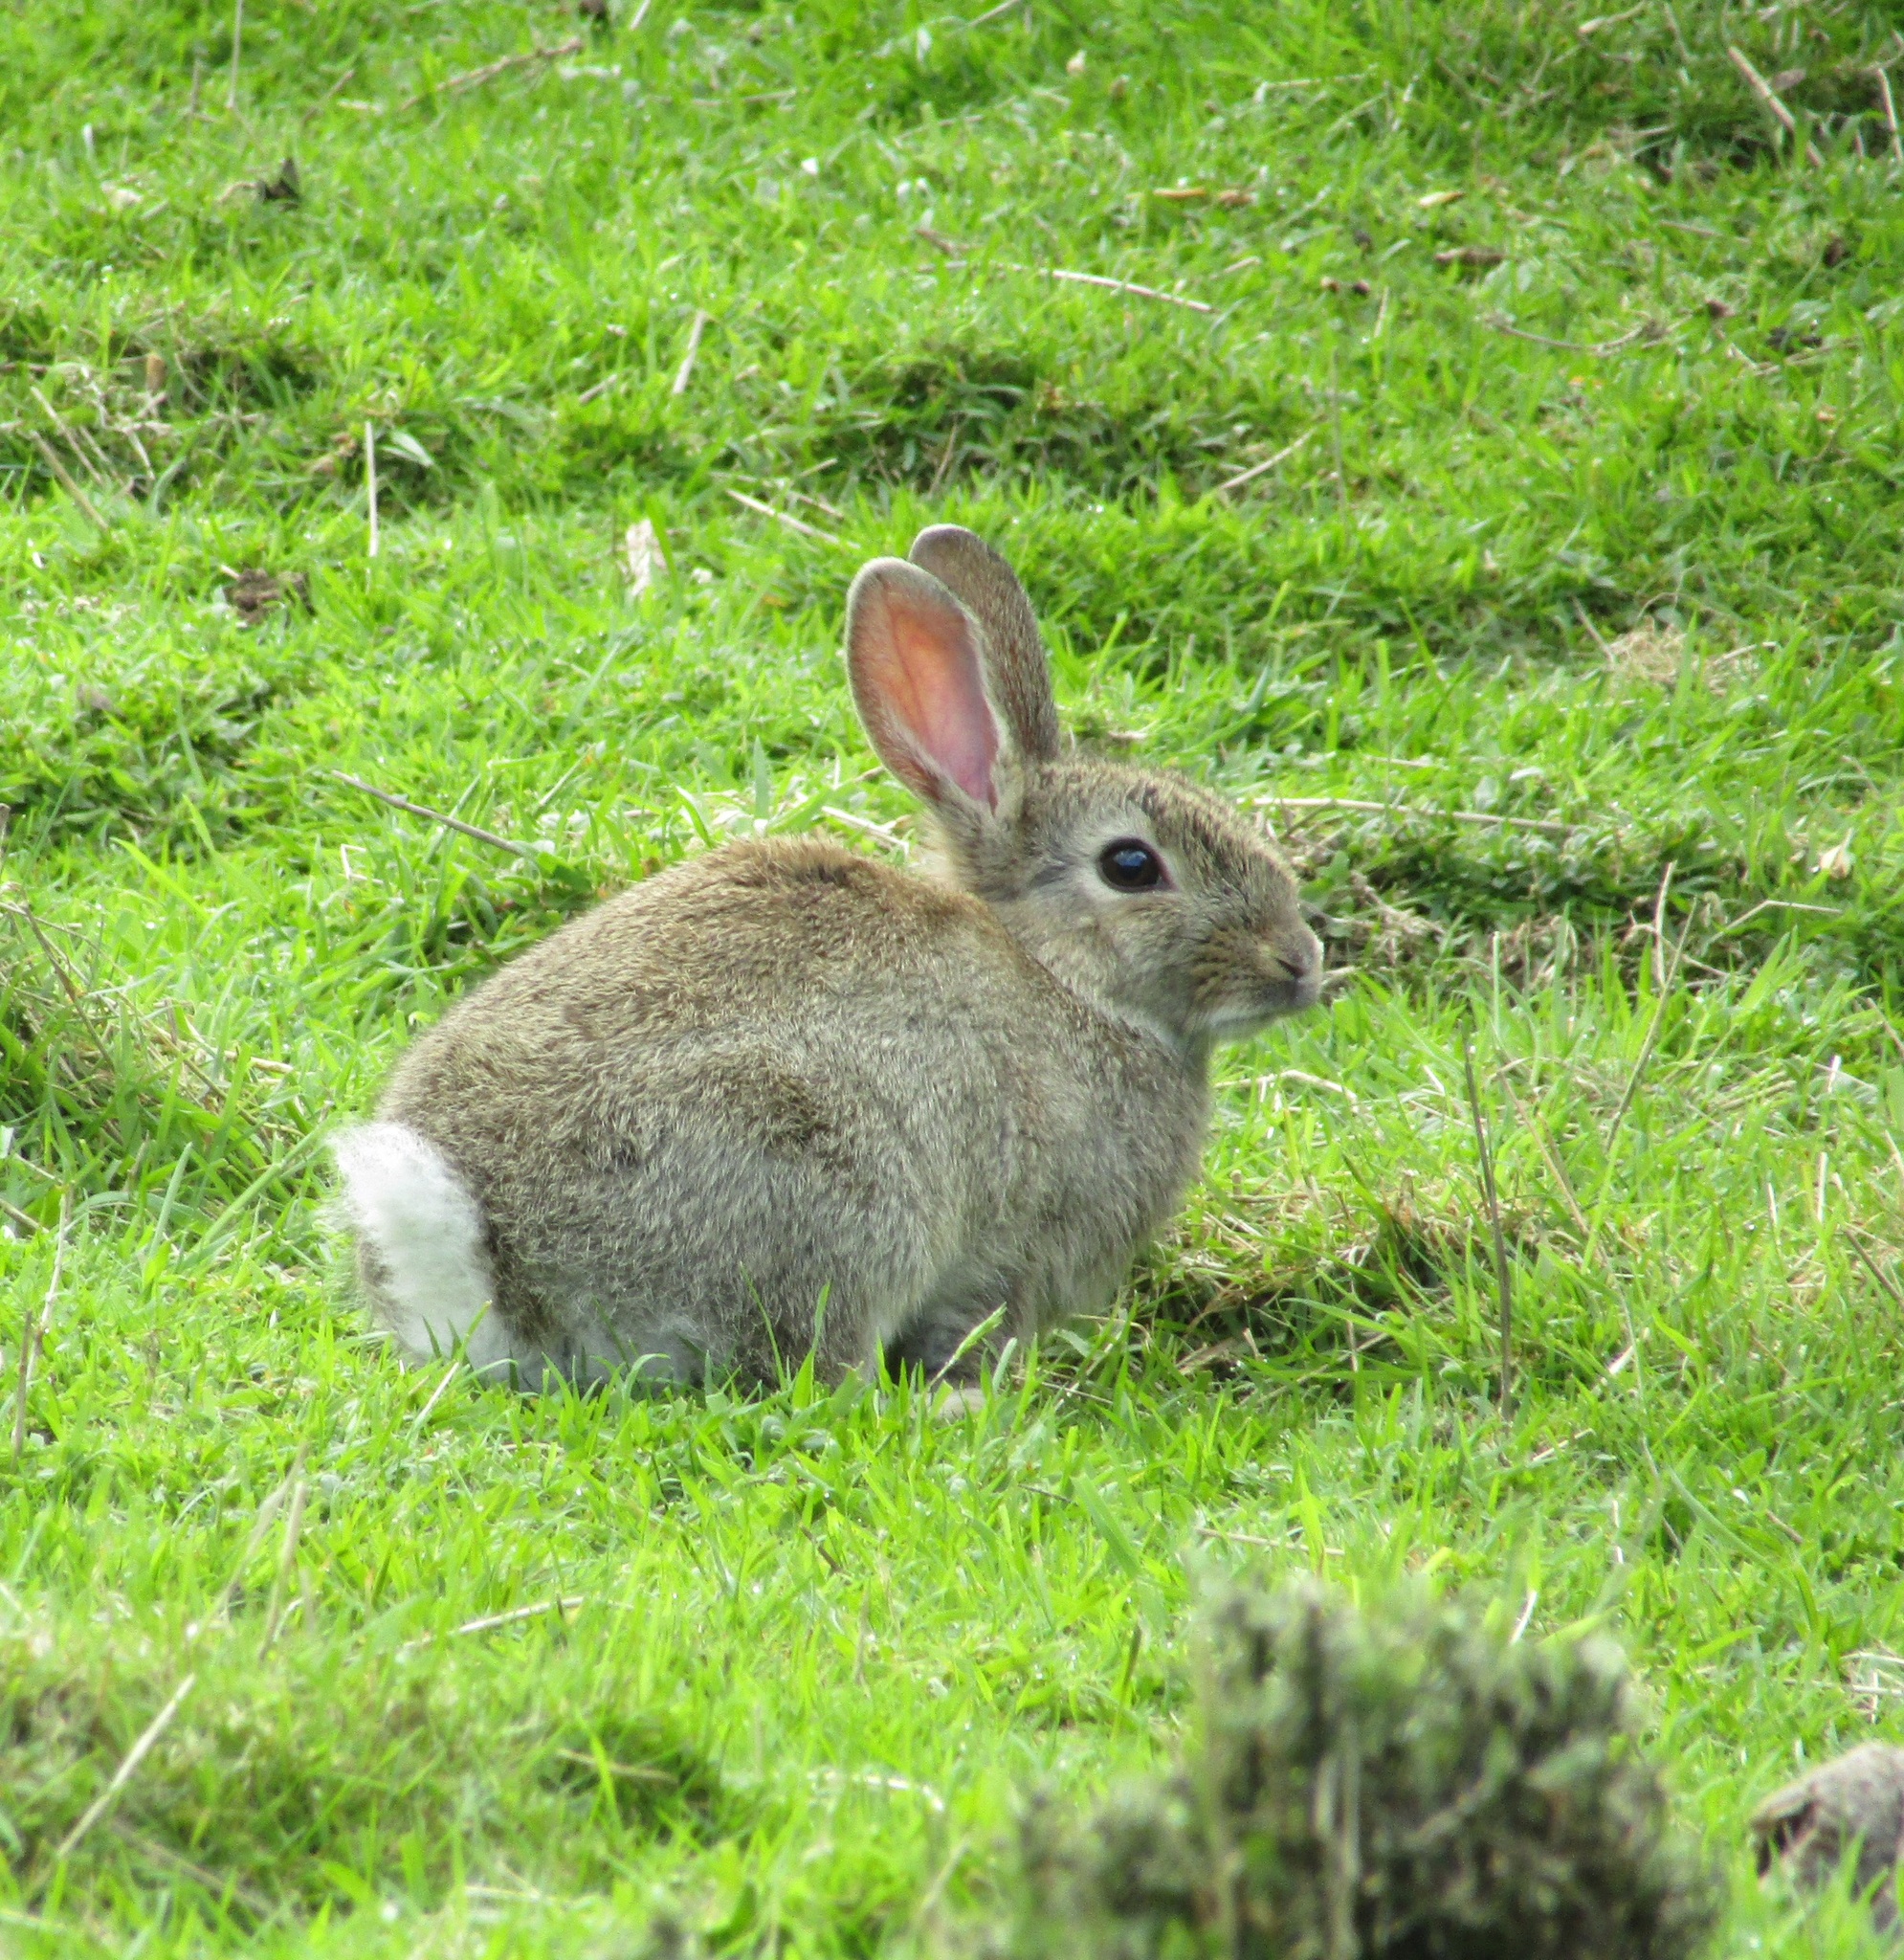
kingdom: Animalia
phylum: Chordata
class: Mammalia
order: Lagomorpha
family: Leporidae
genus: Oryctolagus
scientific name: Oryctolagus cuniculus
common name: European rabbit
